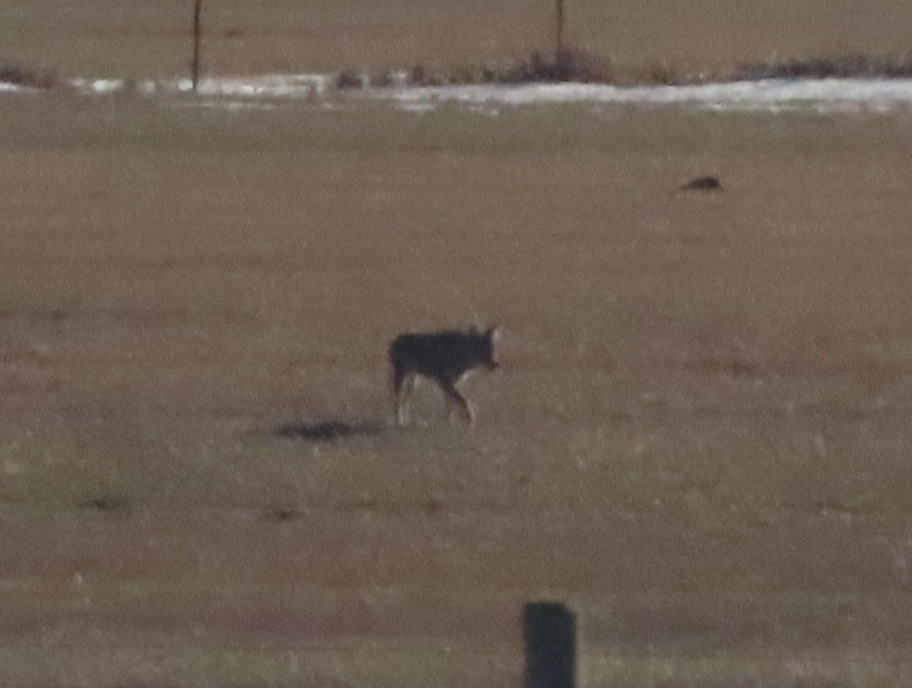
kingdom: Animalia
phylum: Chordata
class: Mammalia
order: Carnivora
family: Canidae
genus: Canis
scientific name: Canis latrans
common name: Coyote
